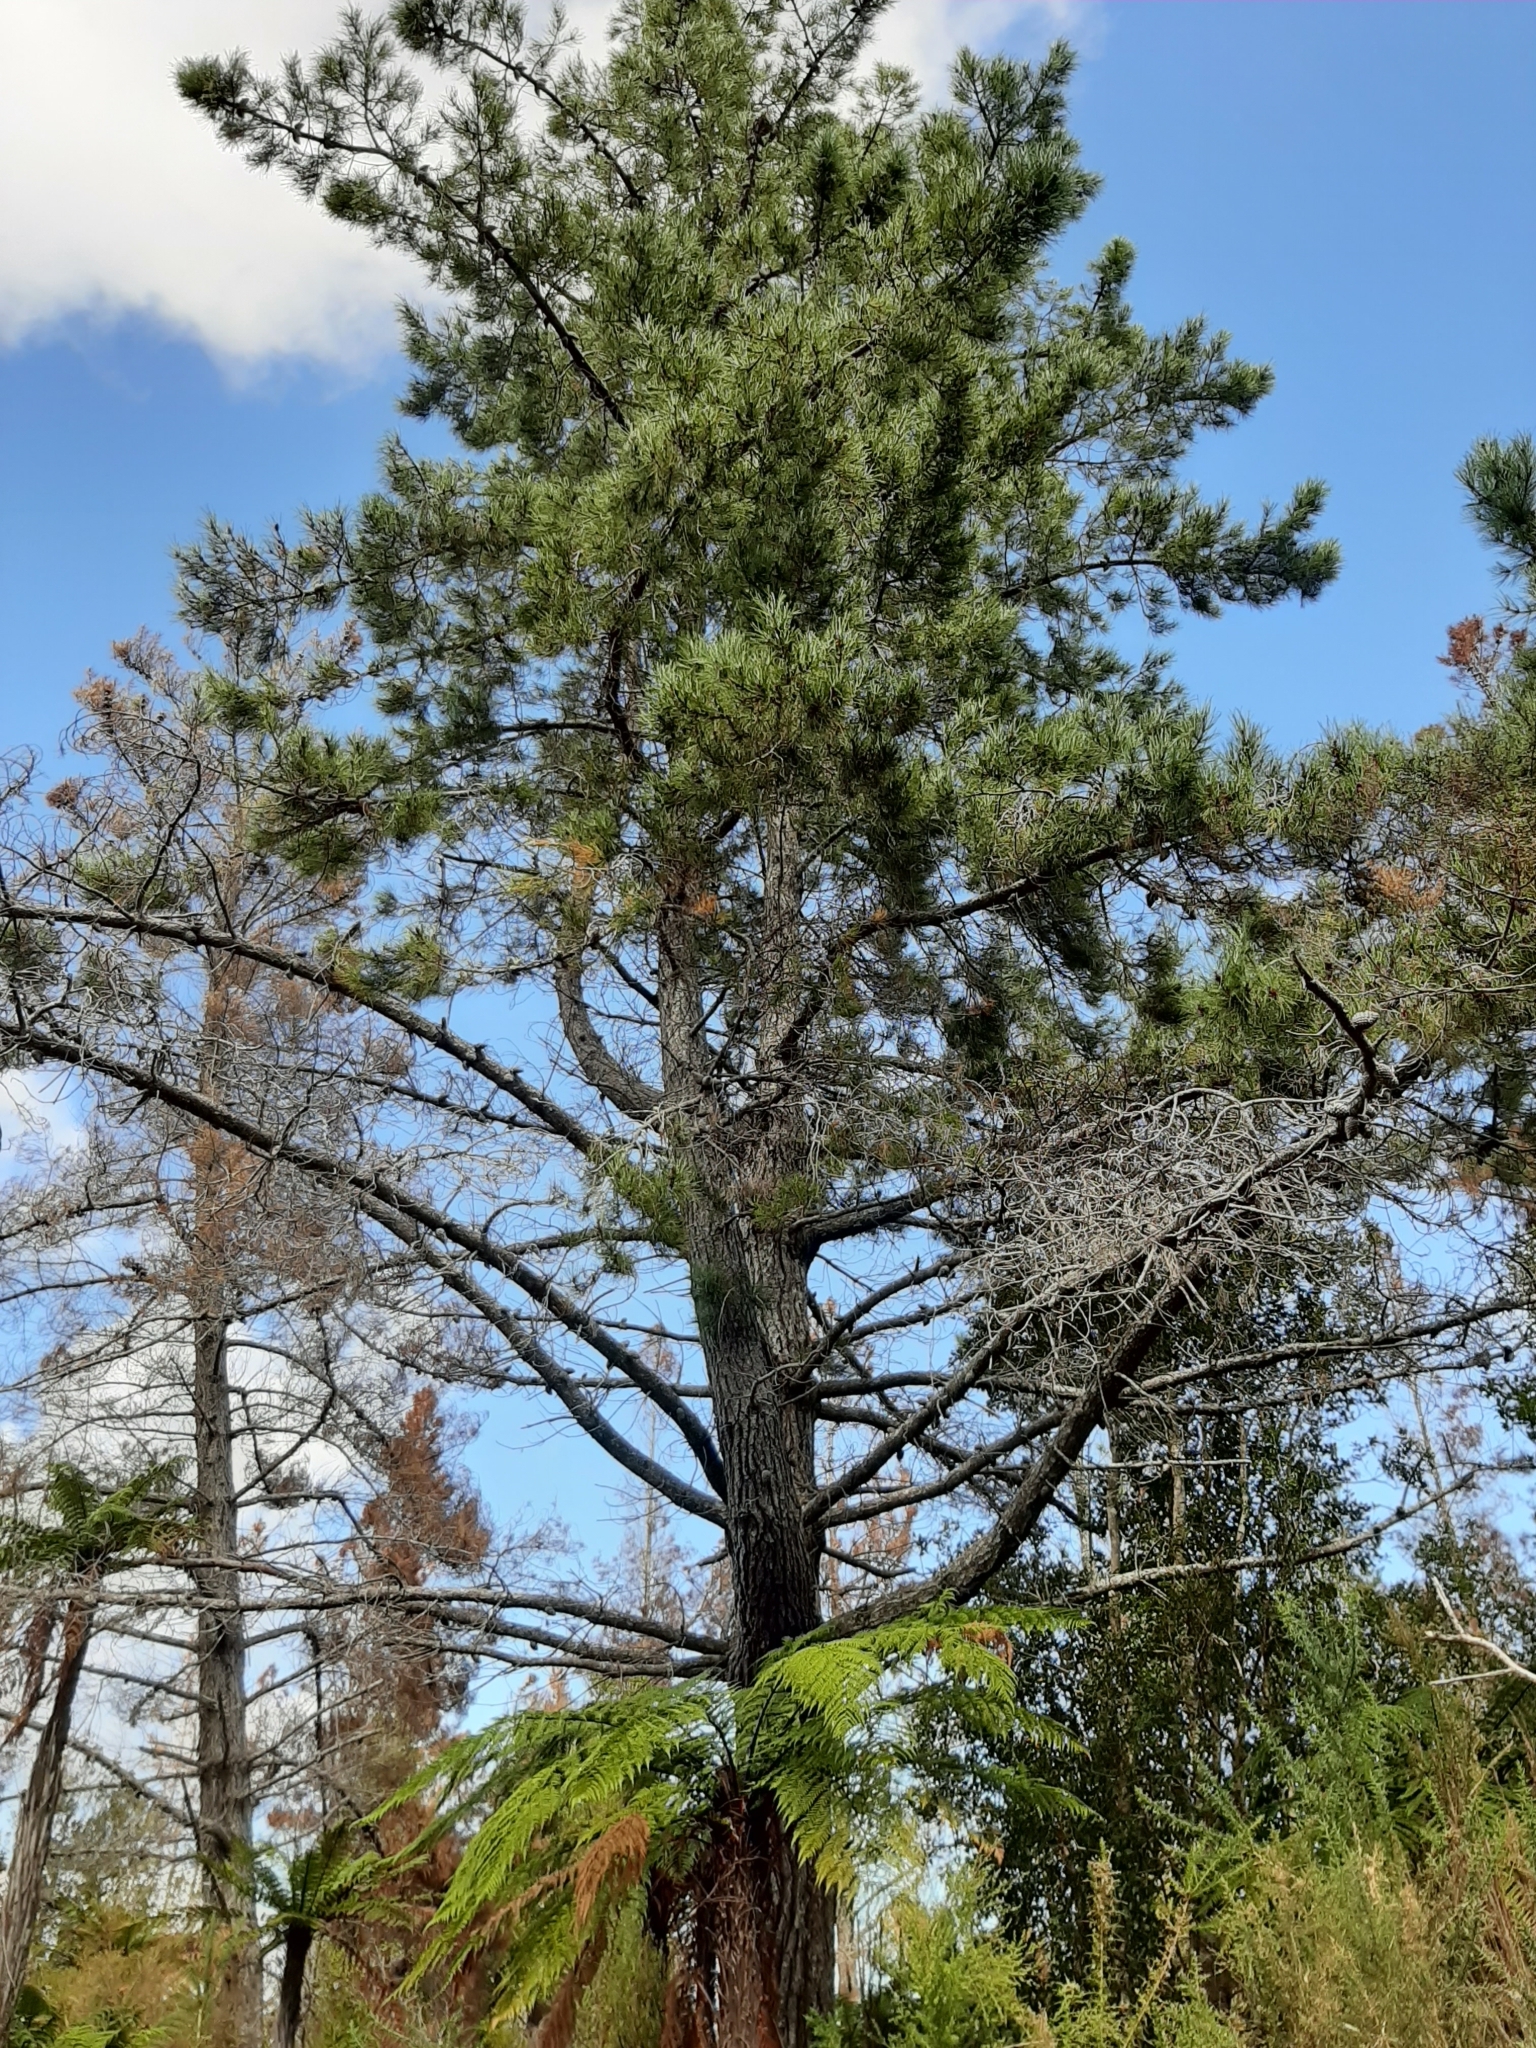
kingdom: Plantae
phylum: Tracheophyta
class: Pinopsida
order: Pinales
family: Pinaceae
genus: Pinus
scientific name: Pinus radiata
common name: Monterey pine
